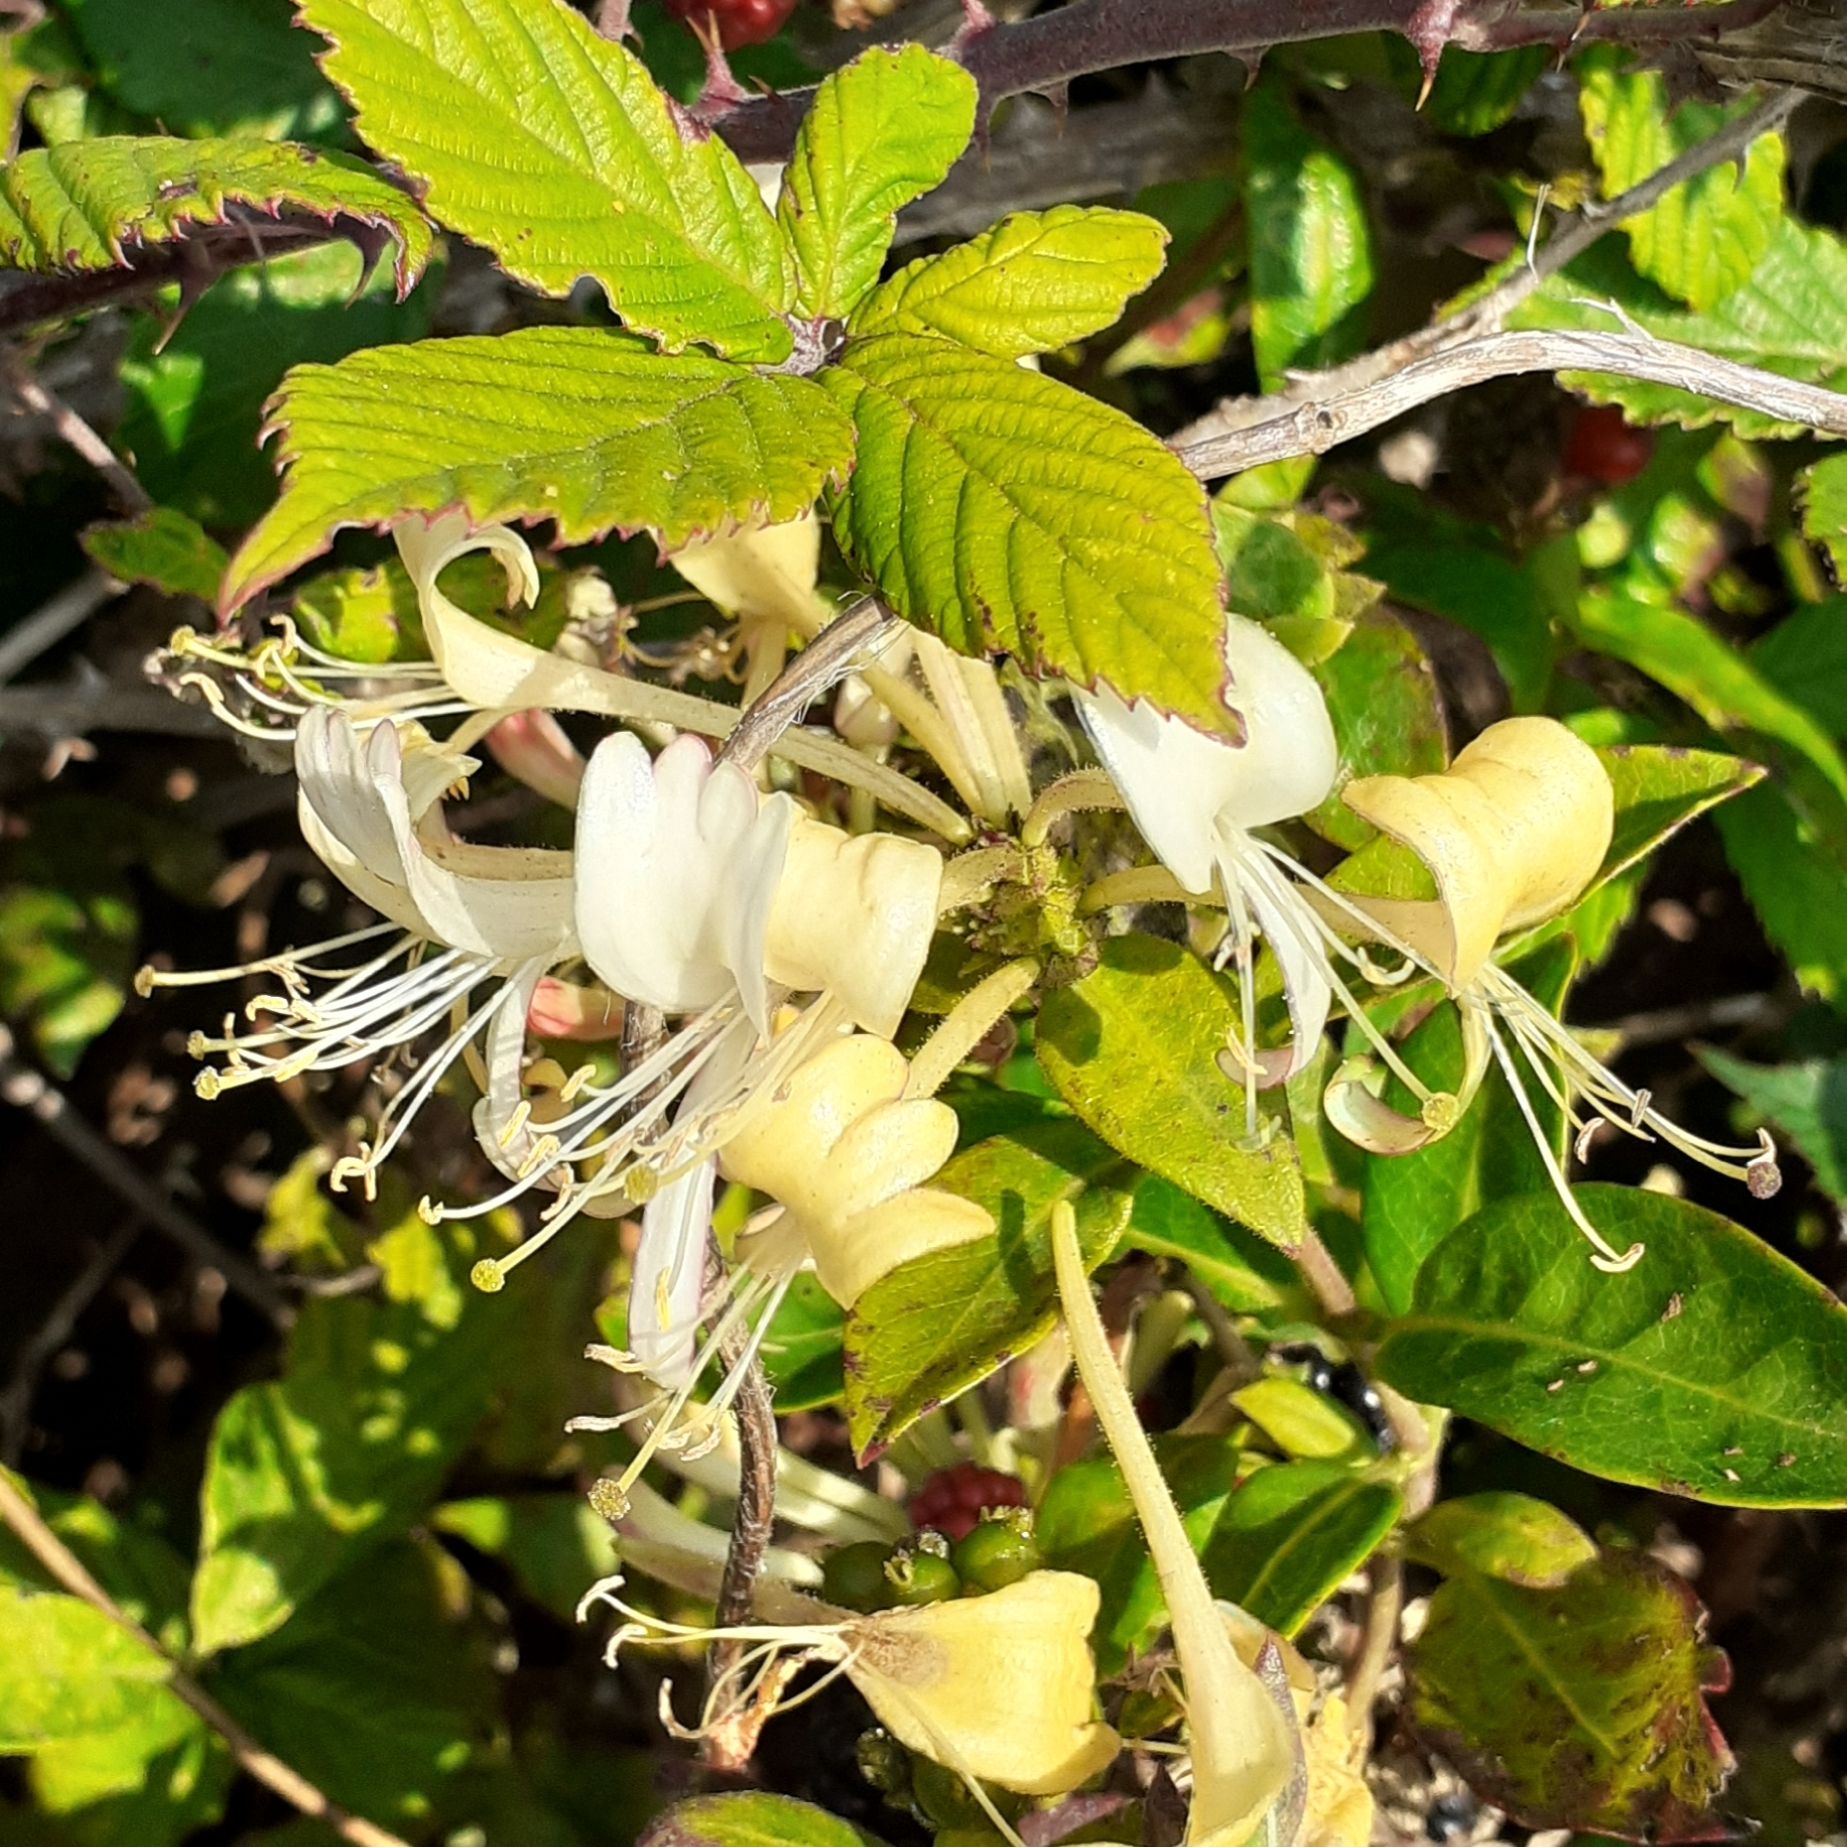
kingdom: Plantae
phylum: Tracheophyta
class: Magnoliopsida
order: Dipsacales
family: Caprifoliaceae
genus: Lonicera
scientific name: Lonicera periclymenum
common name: European honeysuckle
